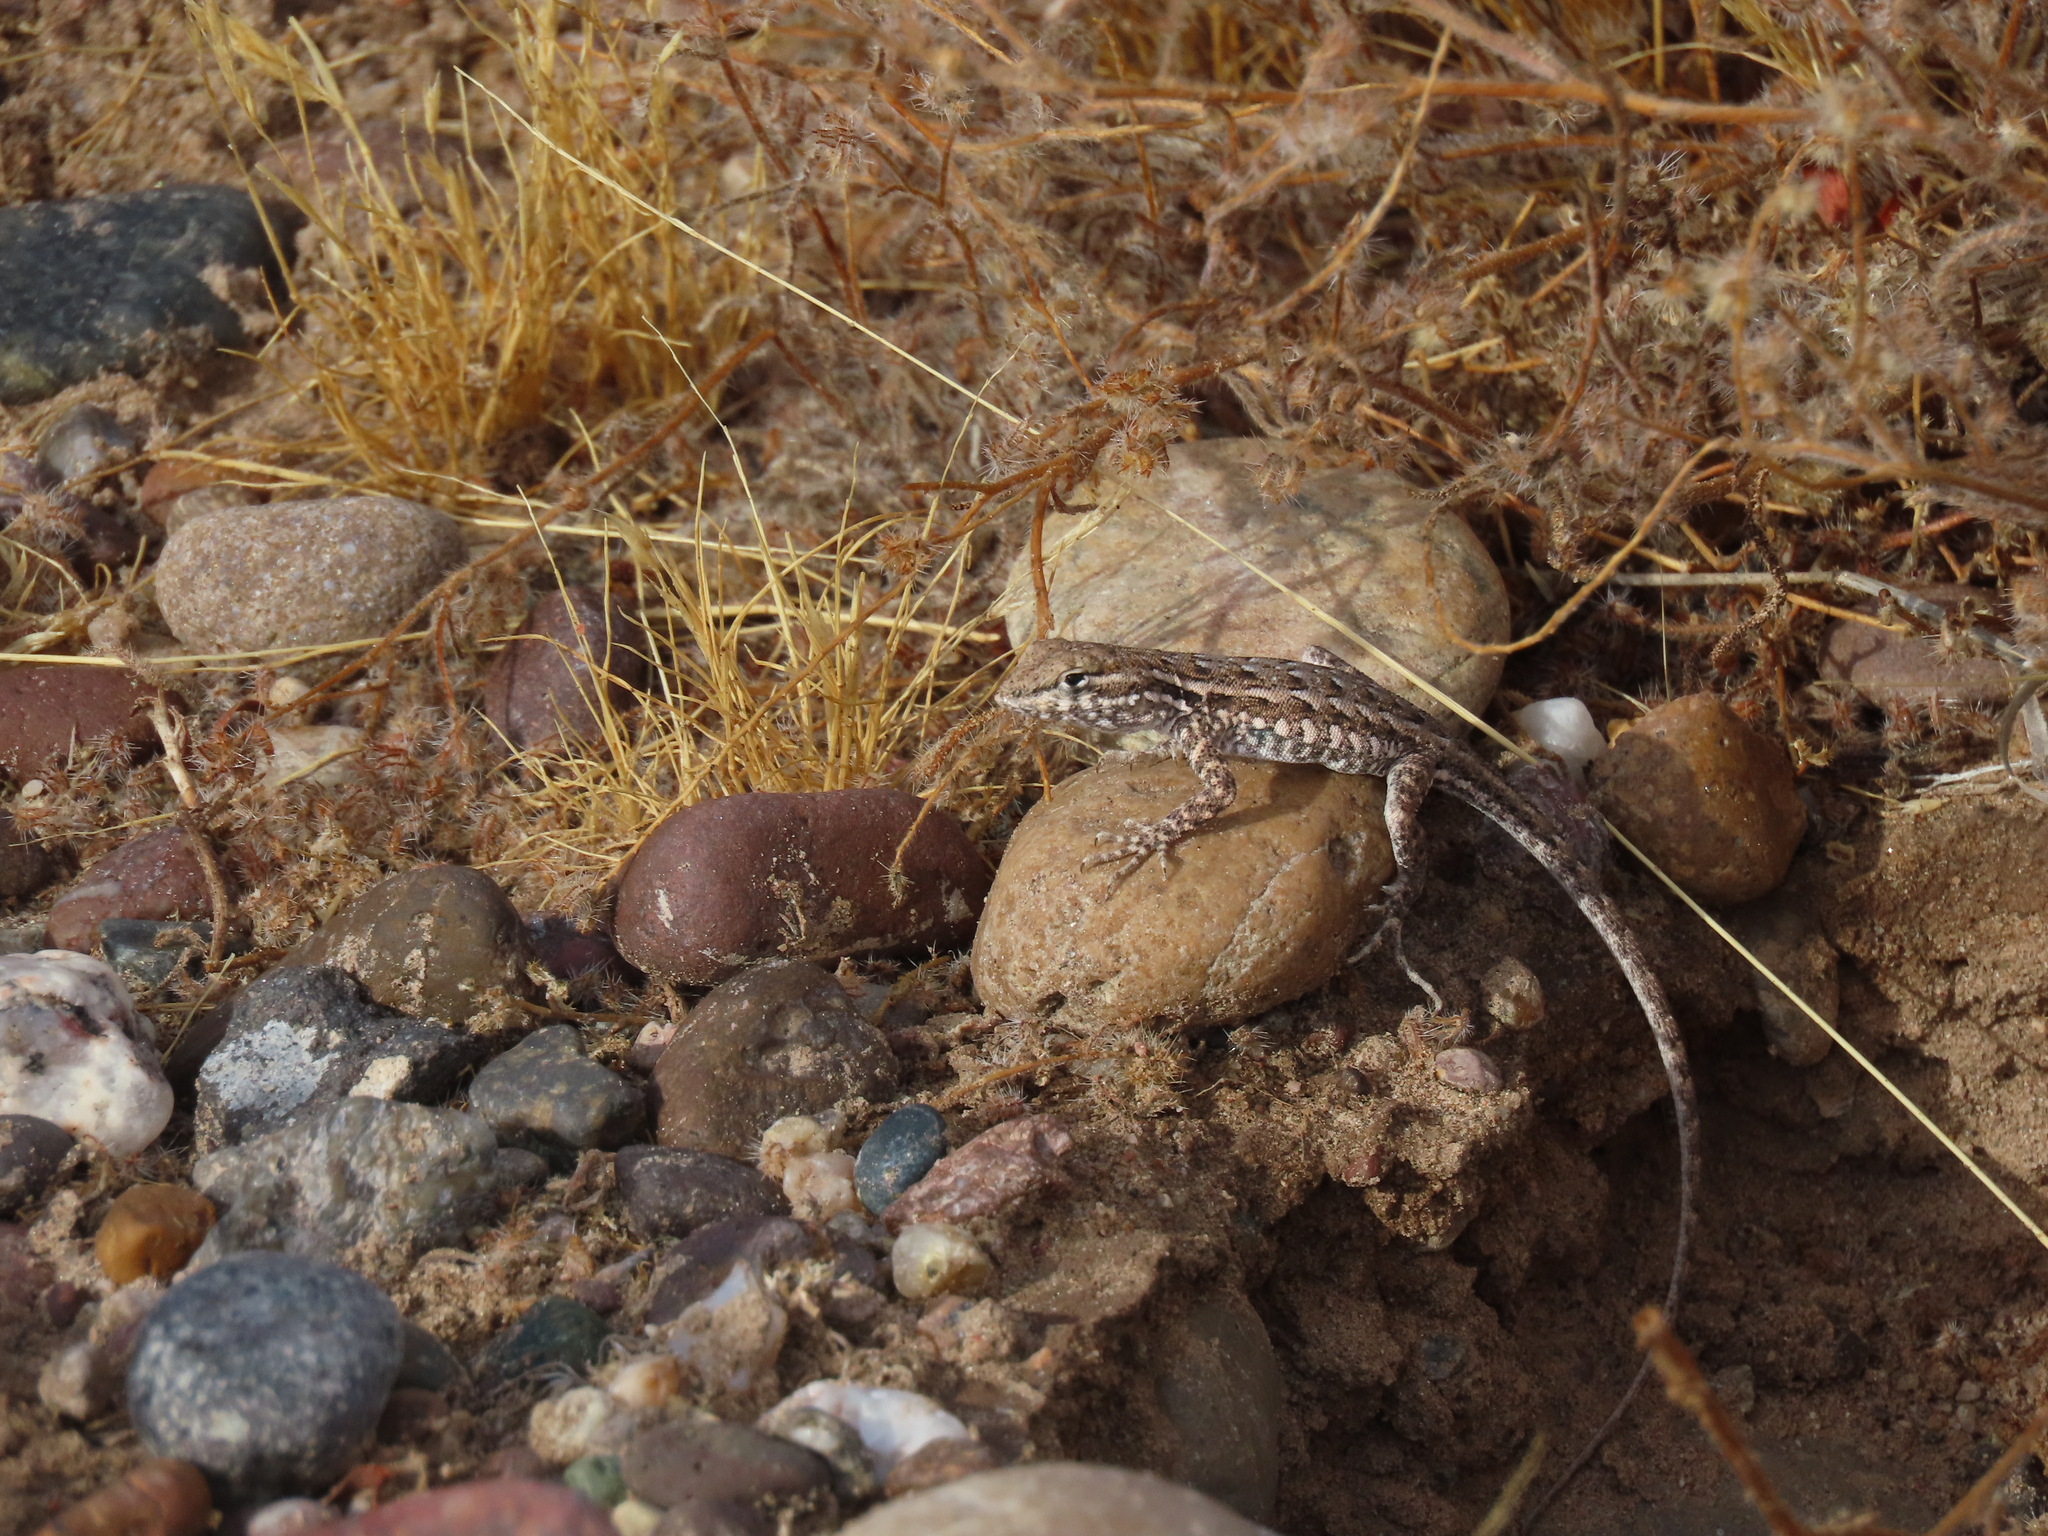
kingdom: Animalia
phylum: Chordata
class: Squamata
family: Phrynosomatidae
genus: Uta
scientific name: Uta stansburiana
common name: Side-blotched lizard
